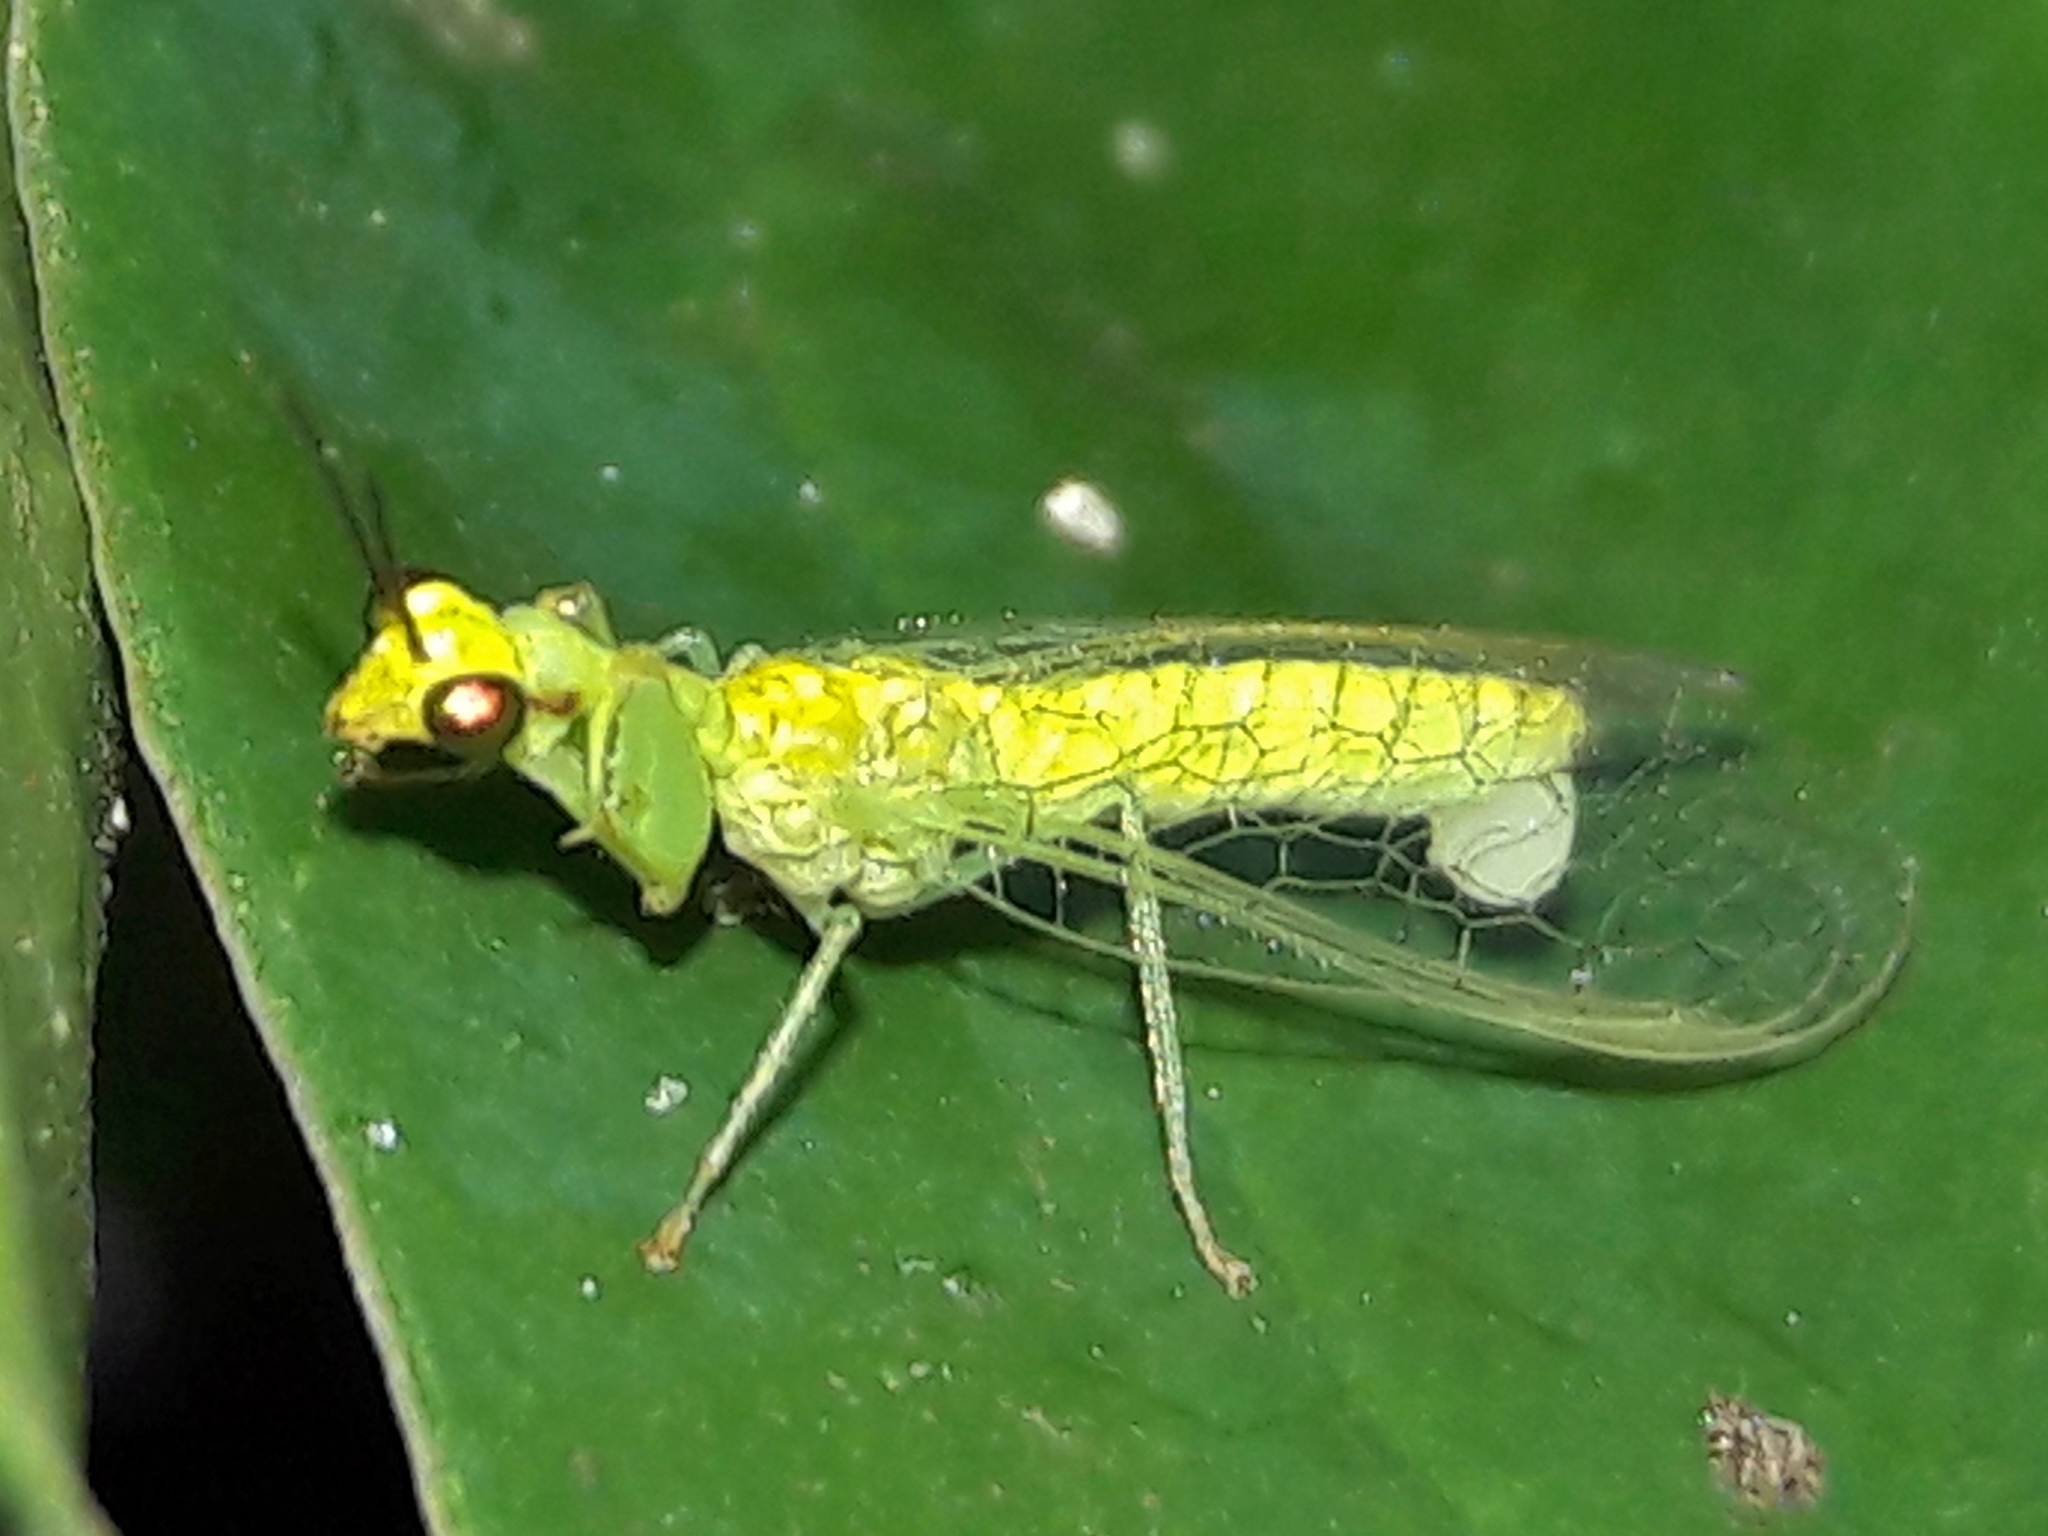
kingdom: Animalia
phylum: Arthropoda
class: Insecta
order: Neuroptera
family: Mantispidae
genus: Zeugomantispa
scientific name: Zeugomantispa virescens
